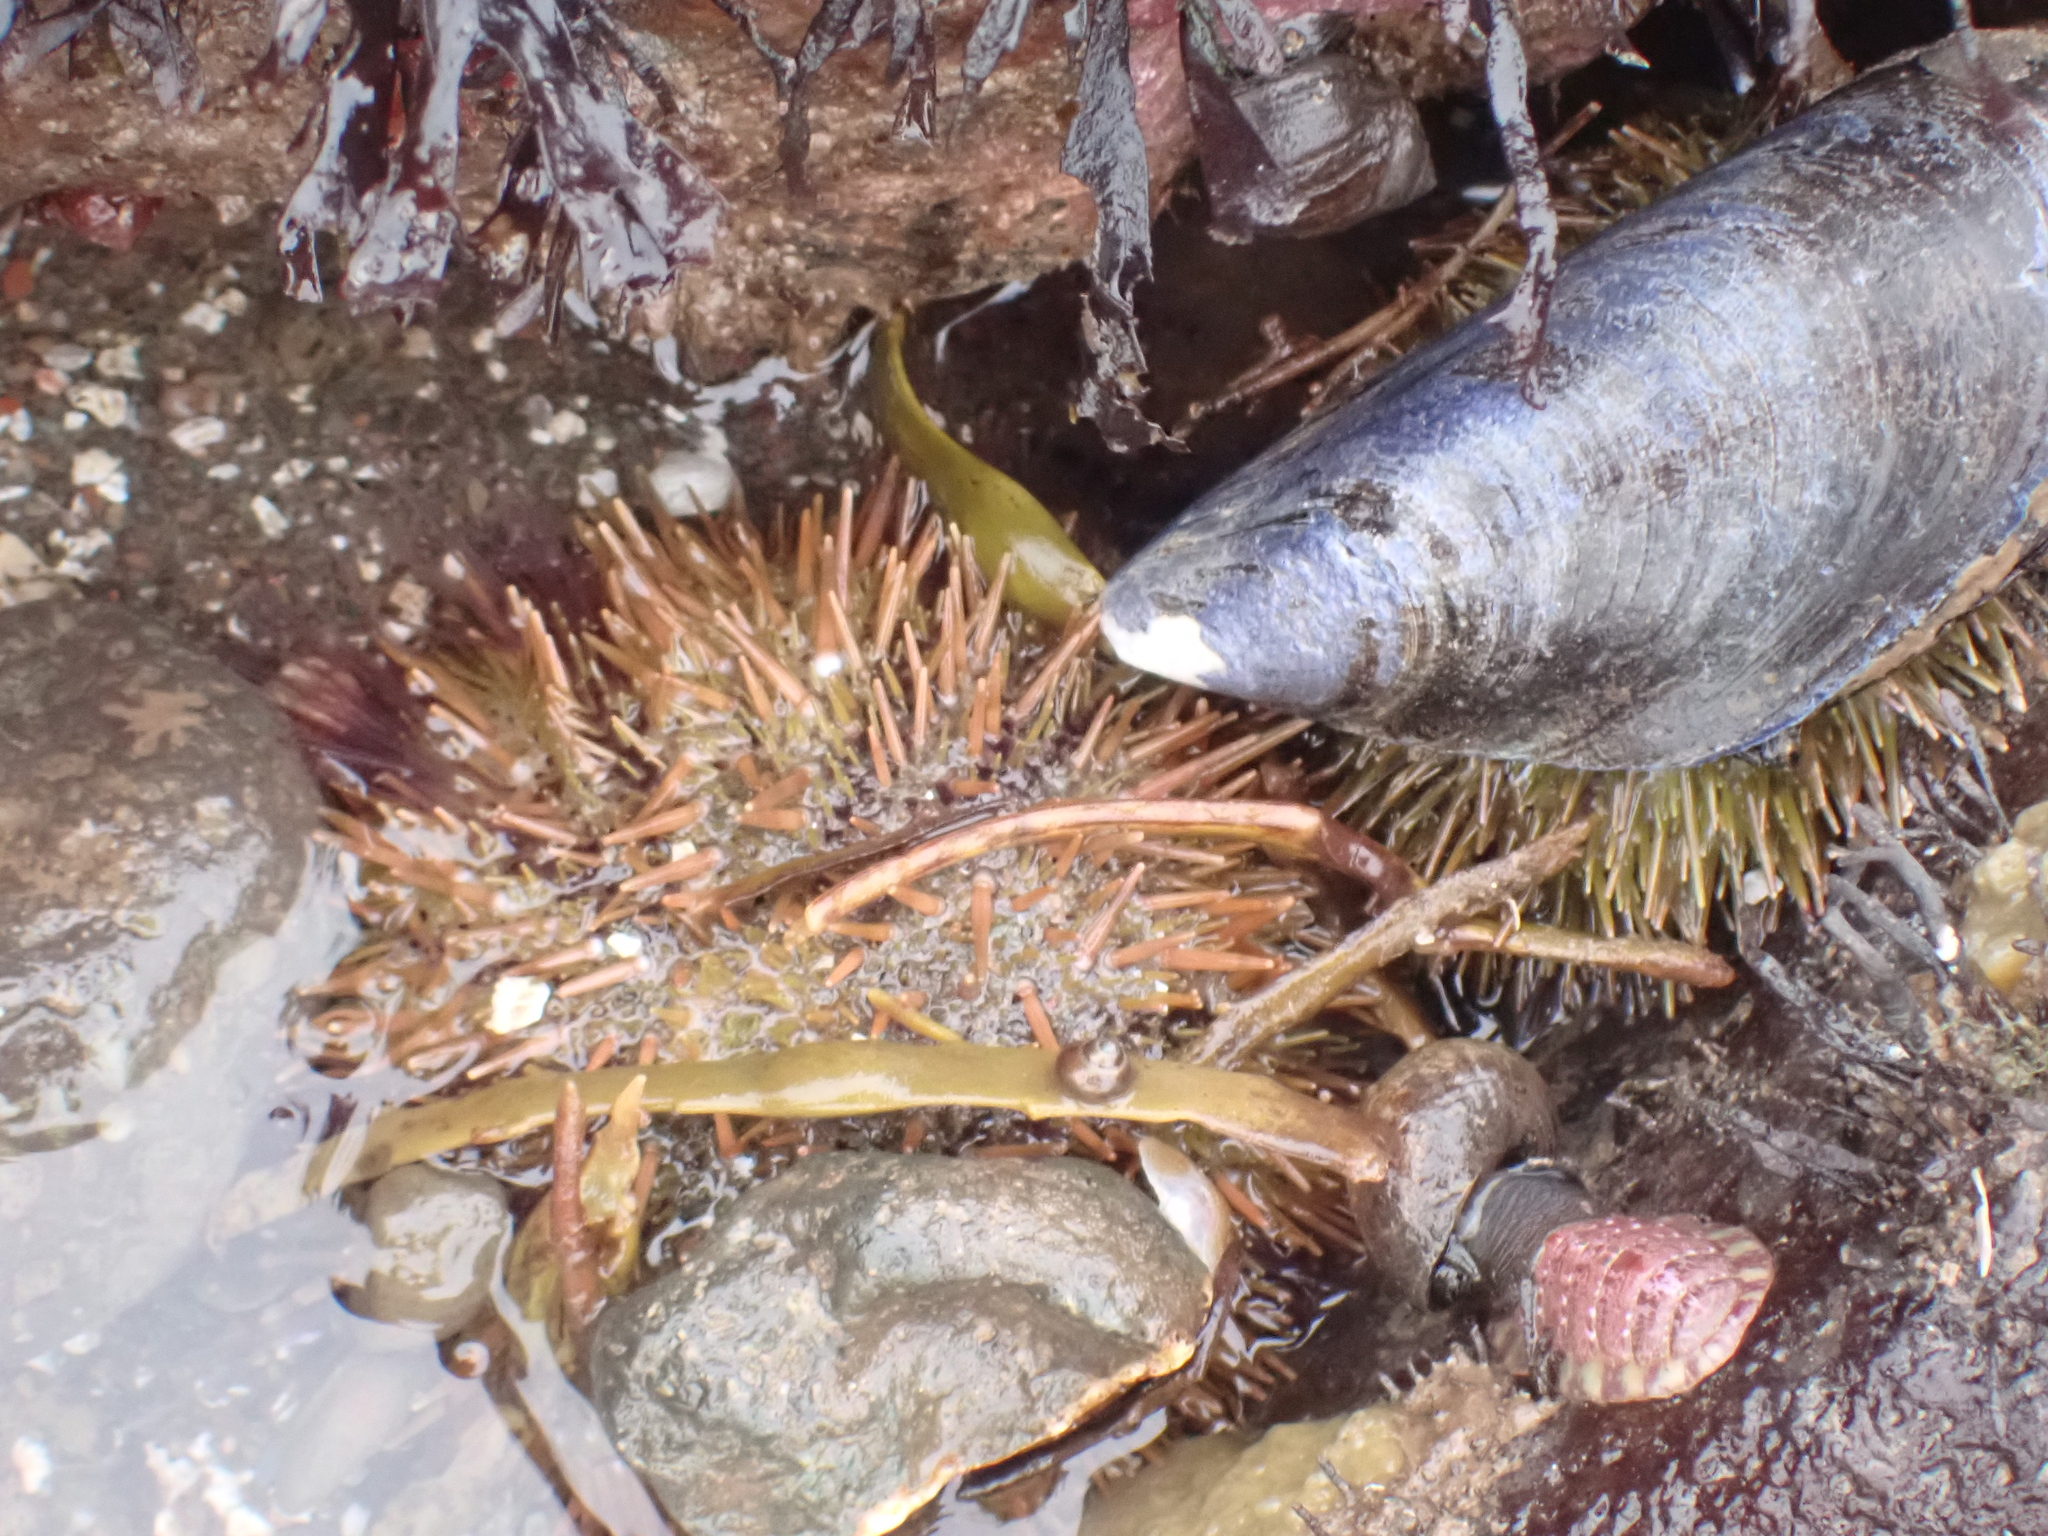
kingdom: Animalia
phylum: Echinodermata
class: Echinoidea
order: Camarodonta
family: Strongylocentrotidae
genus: Strongylocentrotus
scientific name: Strongylocentrotus droebachiensis
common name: Northern sea urchin
